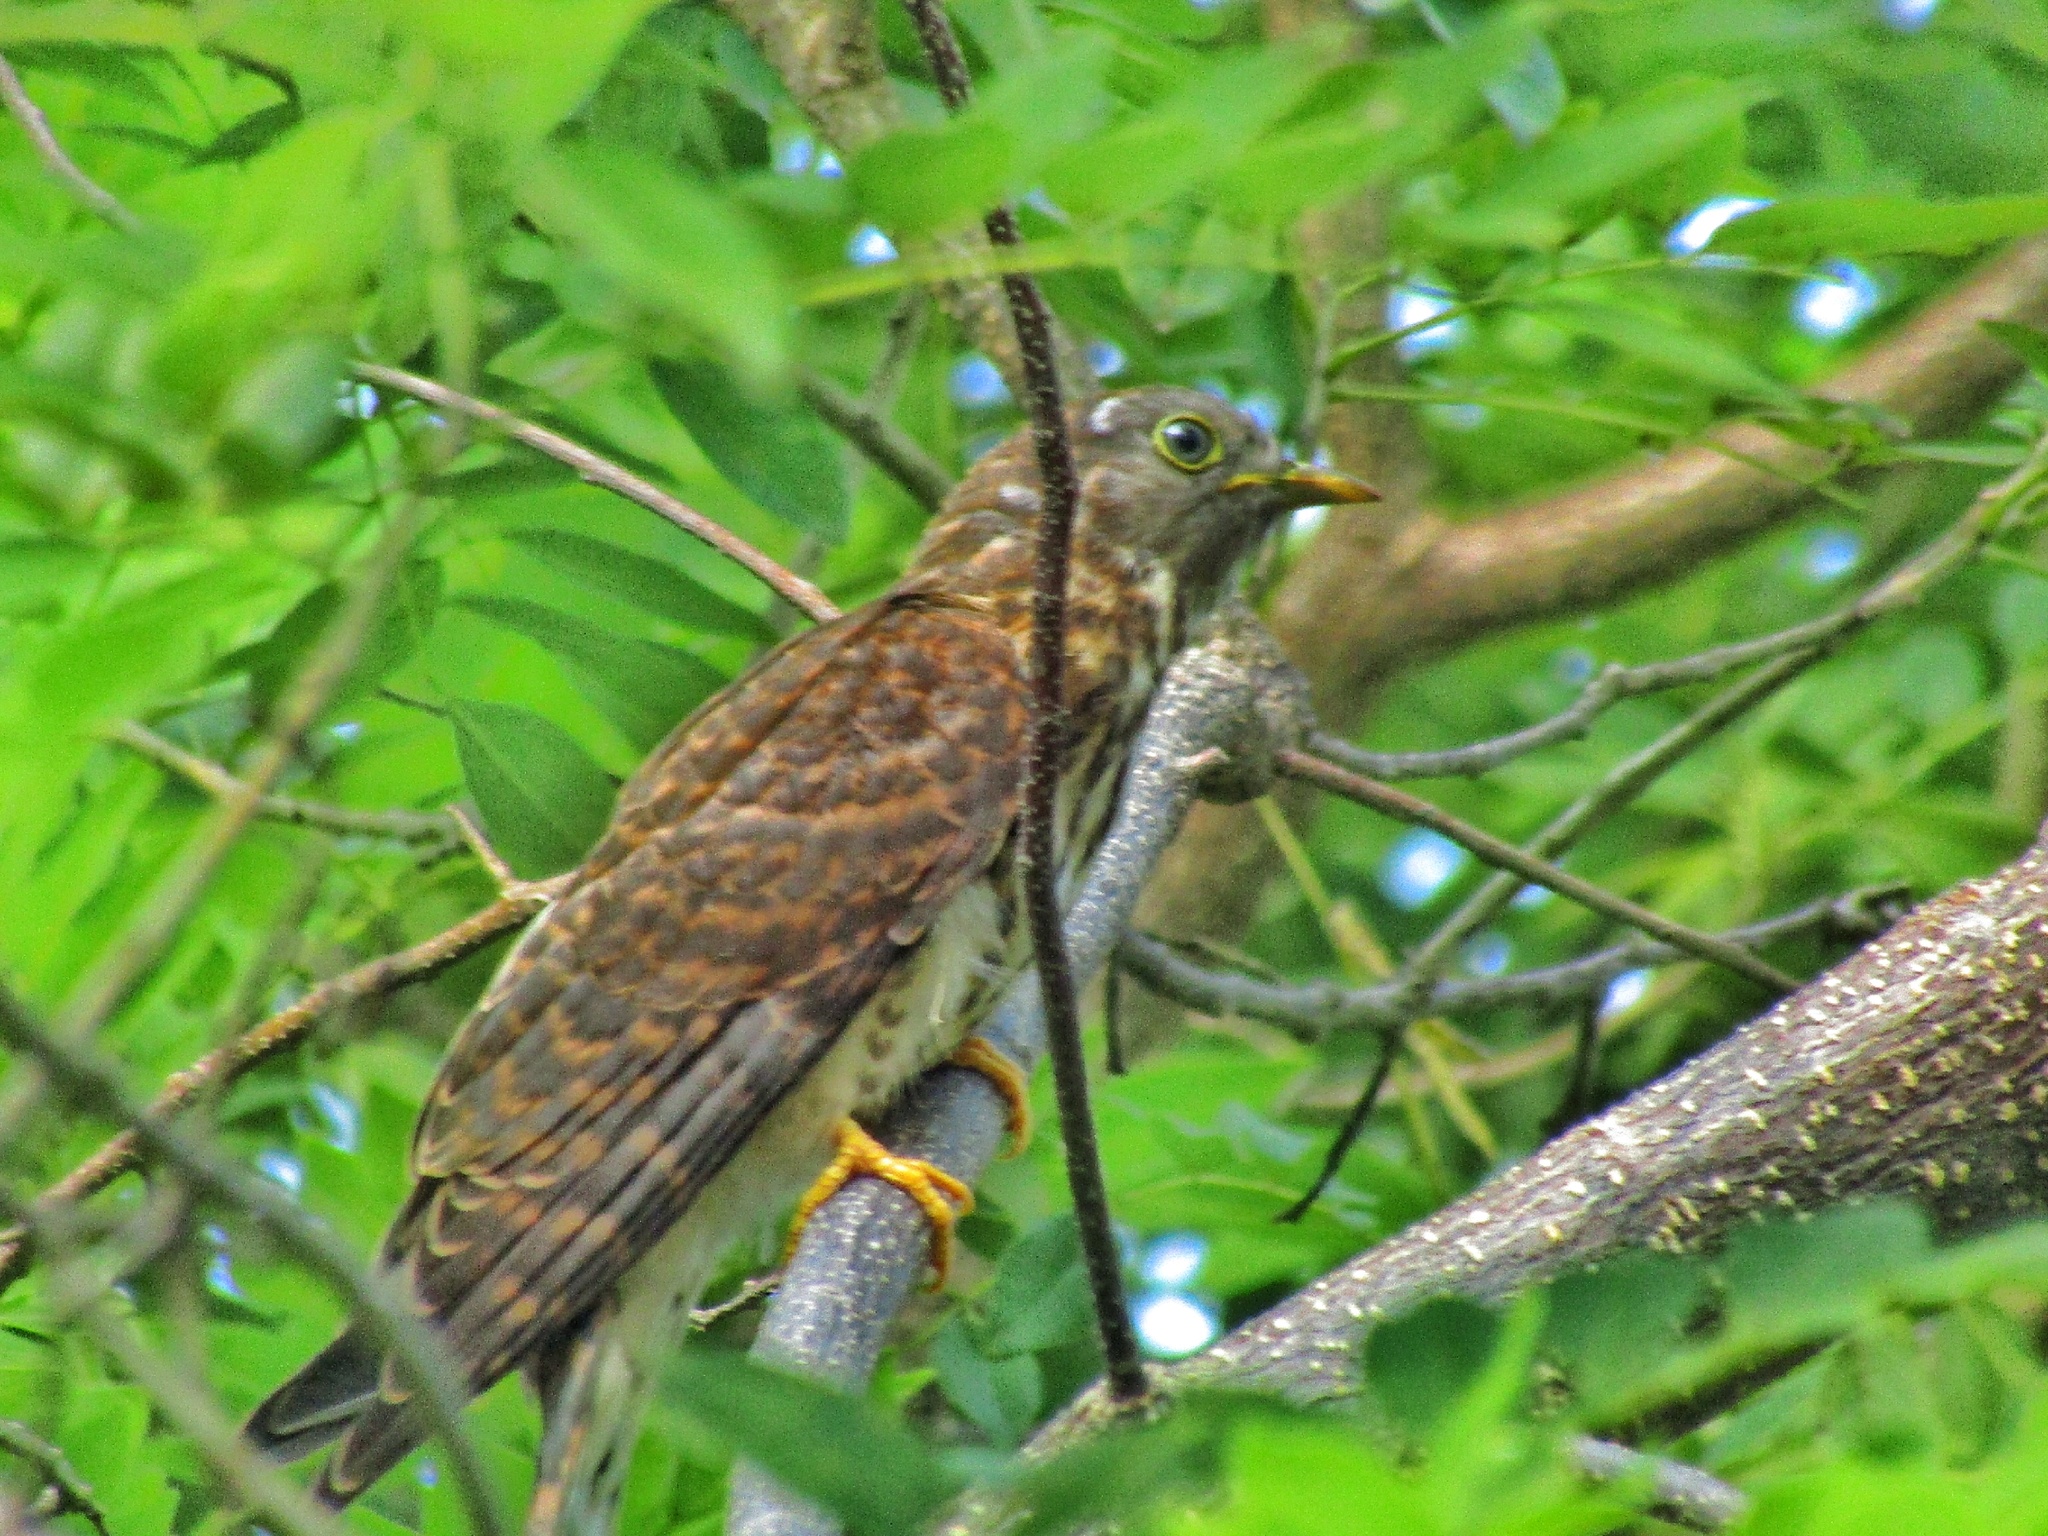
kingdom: Animalia
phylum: Chordata
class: Aves
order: Cuculiformes
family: Cuculidae
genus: Cuculus
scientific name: Cuculus varius
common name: Common hawk cuckoo
